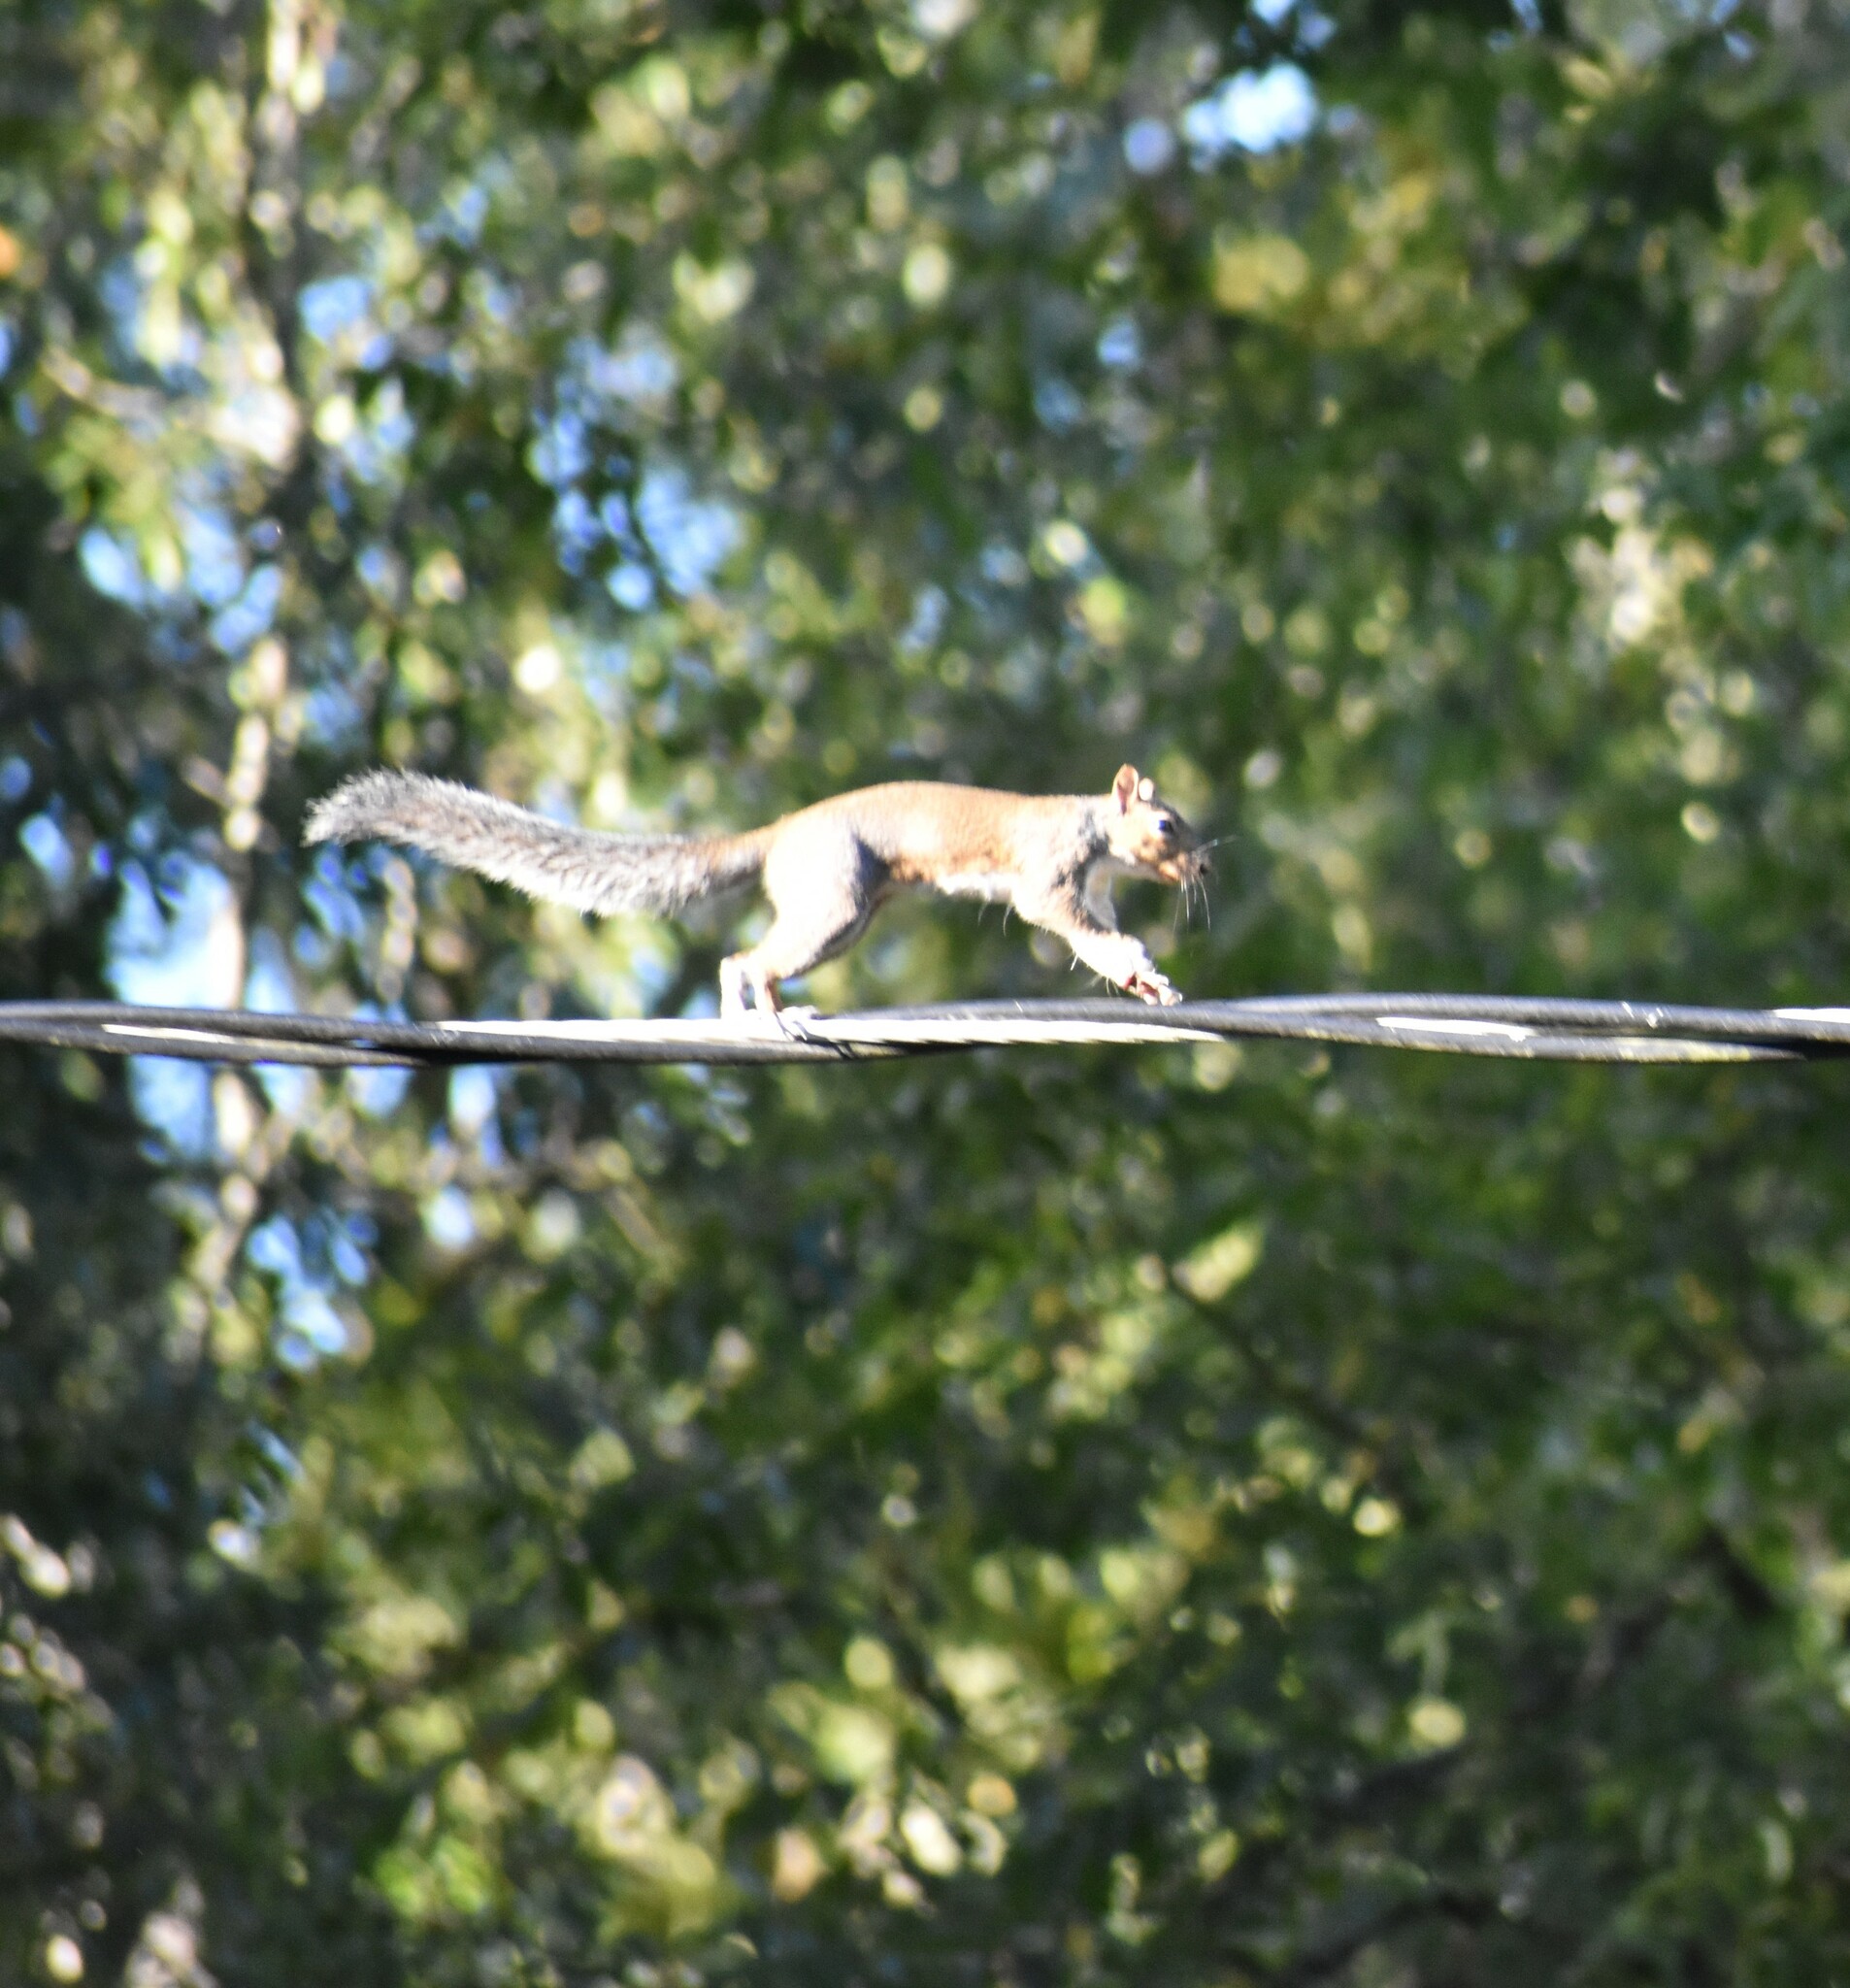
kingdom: Animalia
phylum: Chordata
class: Mammalia
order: Rodentia
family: Sciuridae
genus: Sciurus
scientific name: Sciurus carolinensis
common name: Eastern gray squirrel
